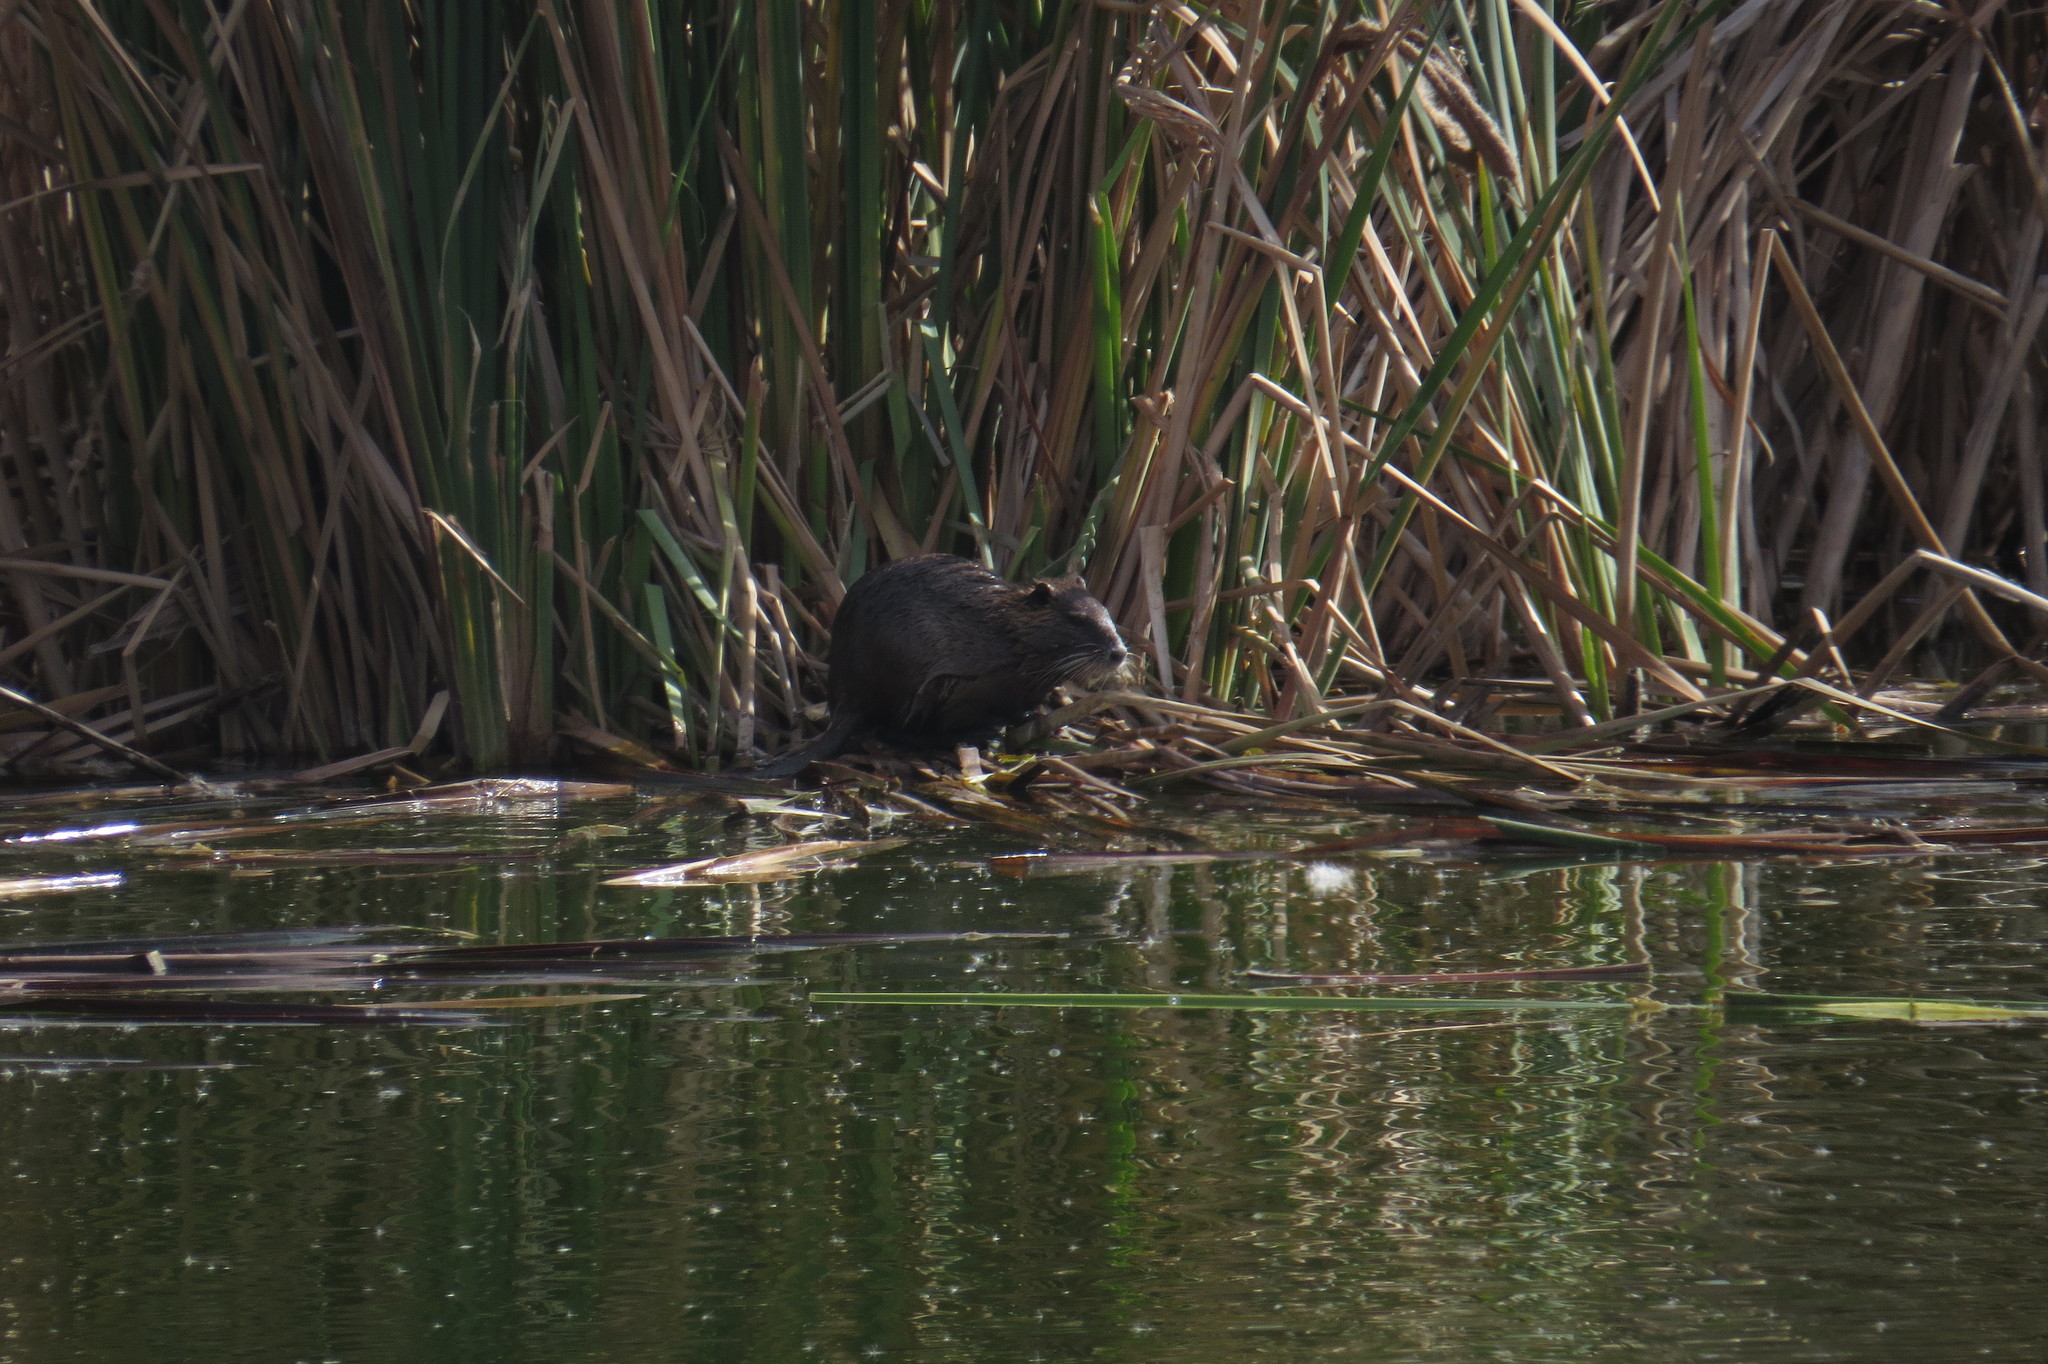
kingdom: Animalia
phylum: Chordata
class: Mammalia
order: Rodentia
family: Myocastoridae
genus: Myocastor
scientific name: Myocastor coypus
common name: Coypu
